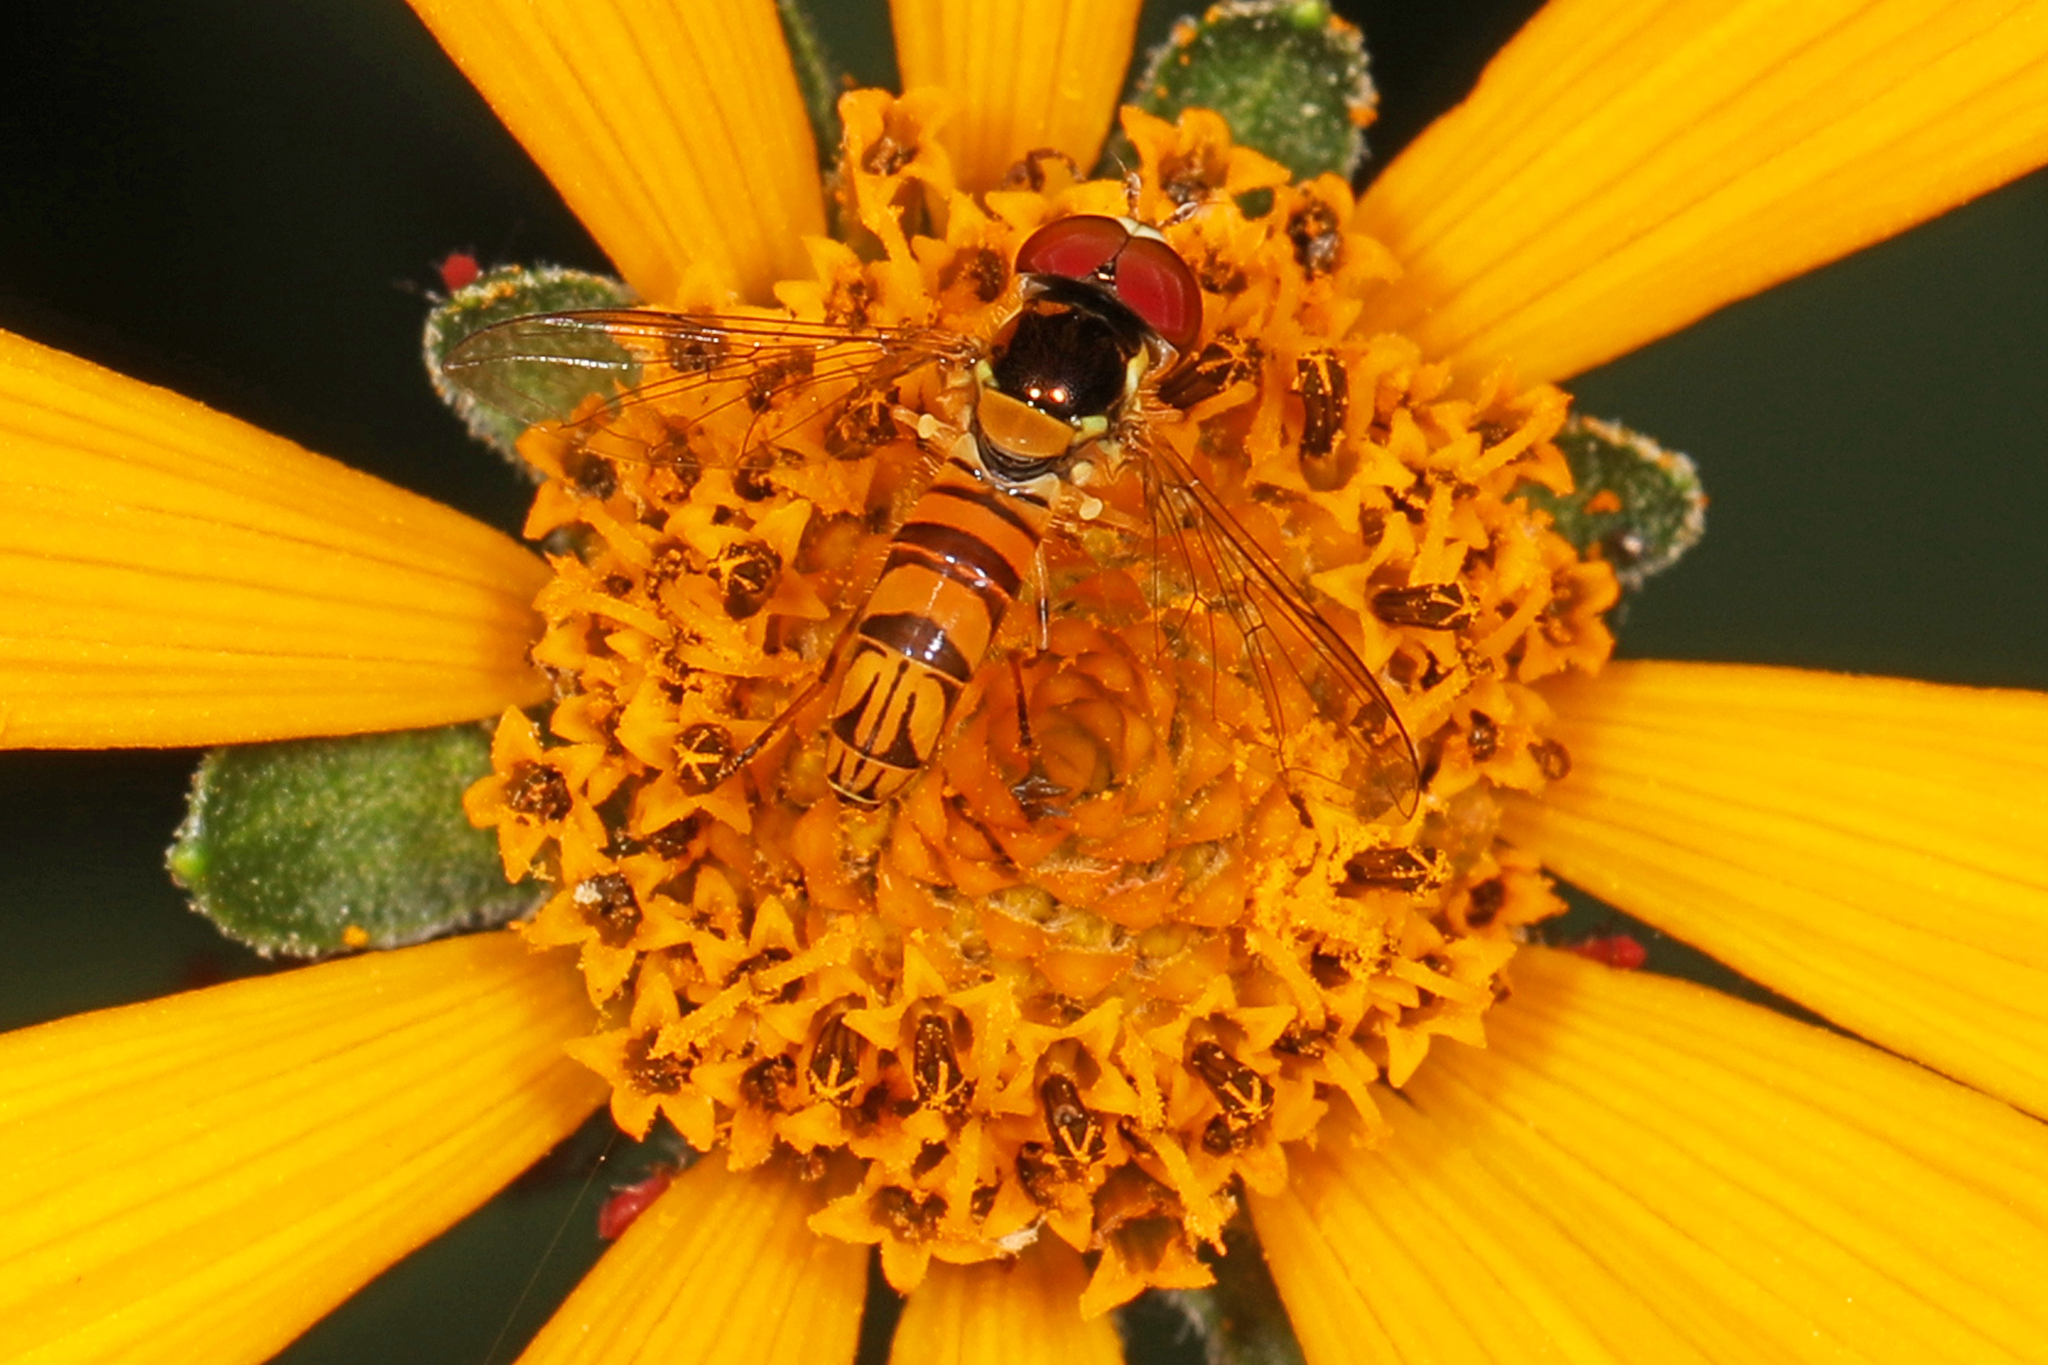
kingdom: Animalia
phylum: Arthropoda
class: Insecta
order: Diptera
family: Syrphidae
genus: Allograpta
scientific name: Allograpta obliqua
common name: Common oblique syrphid
